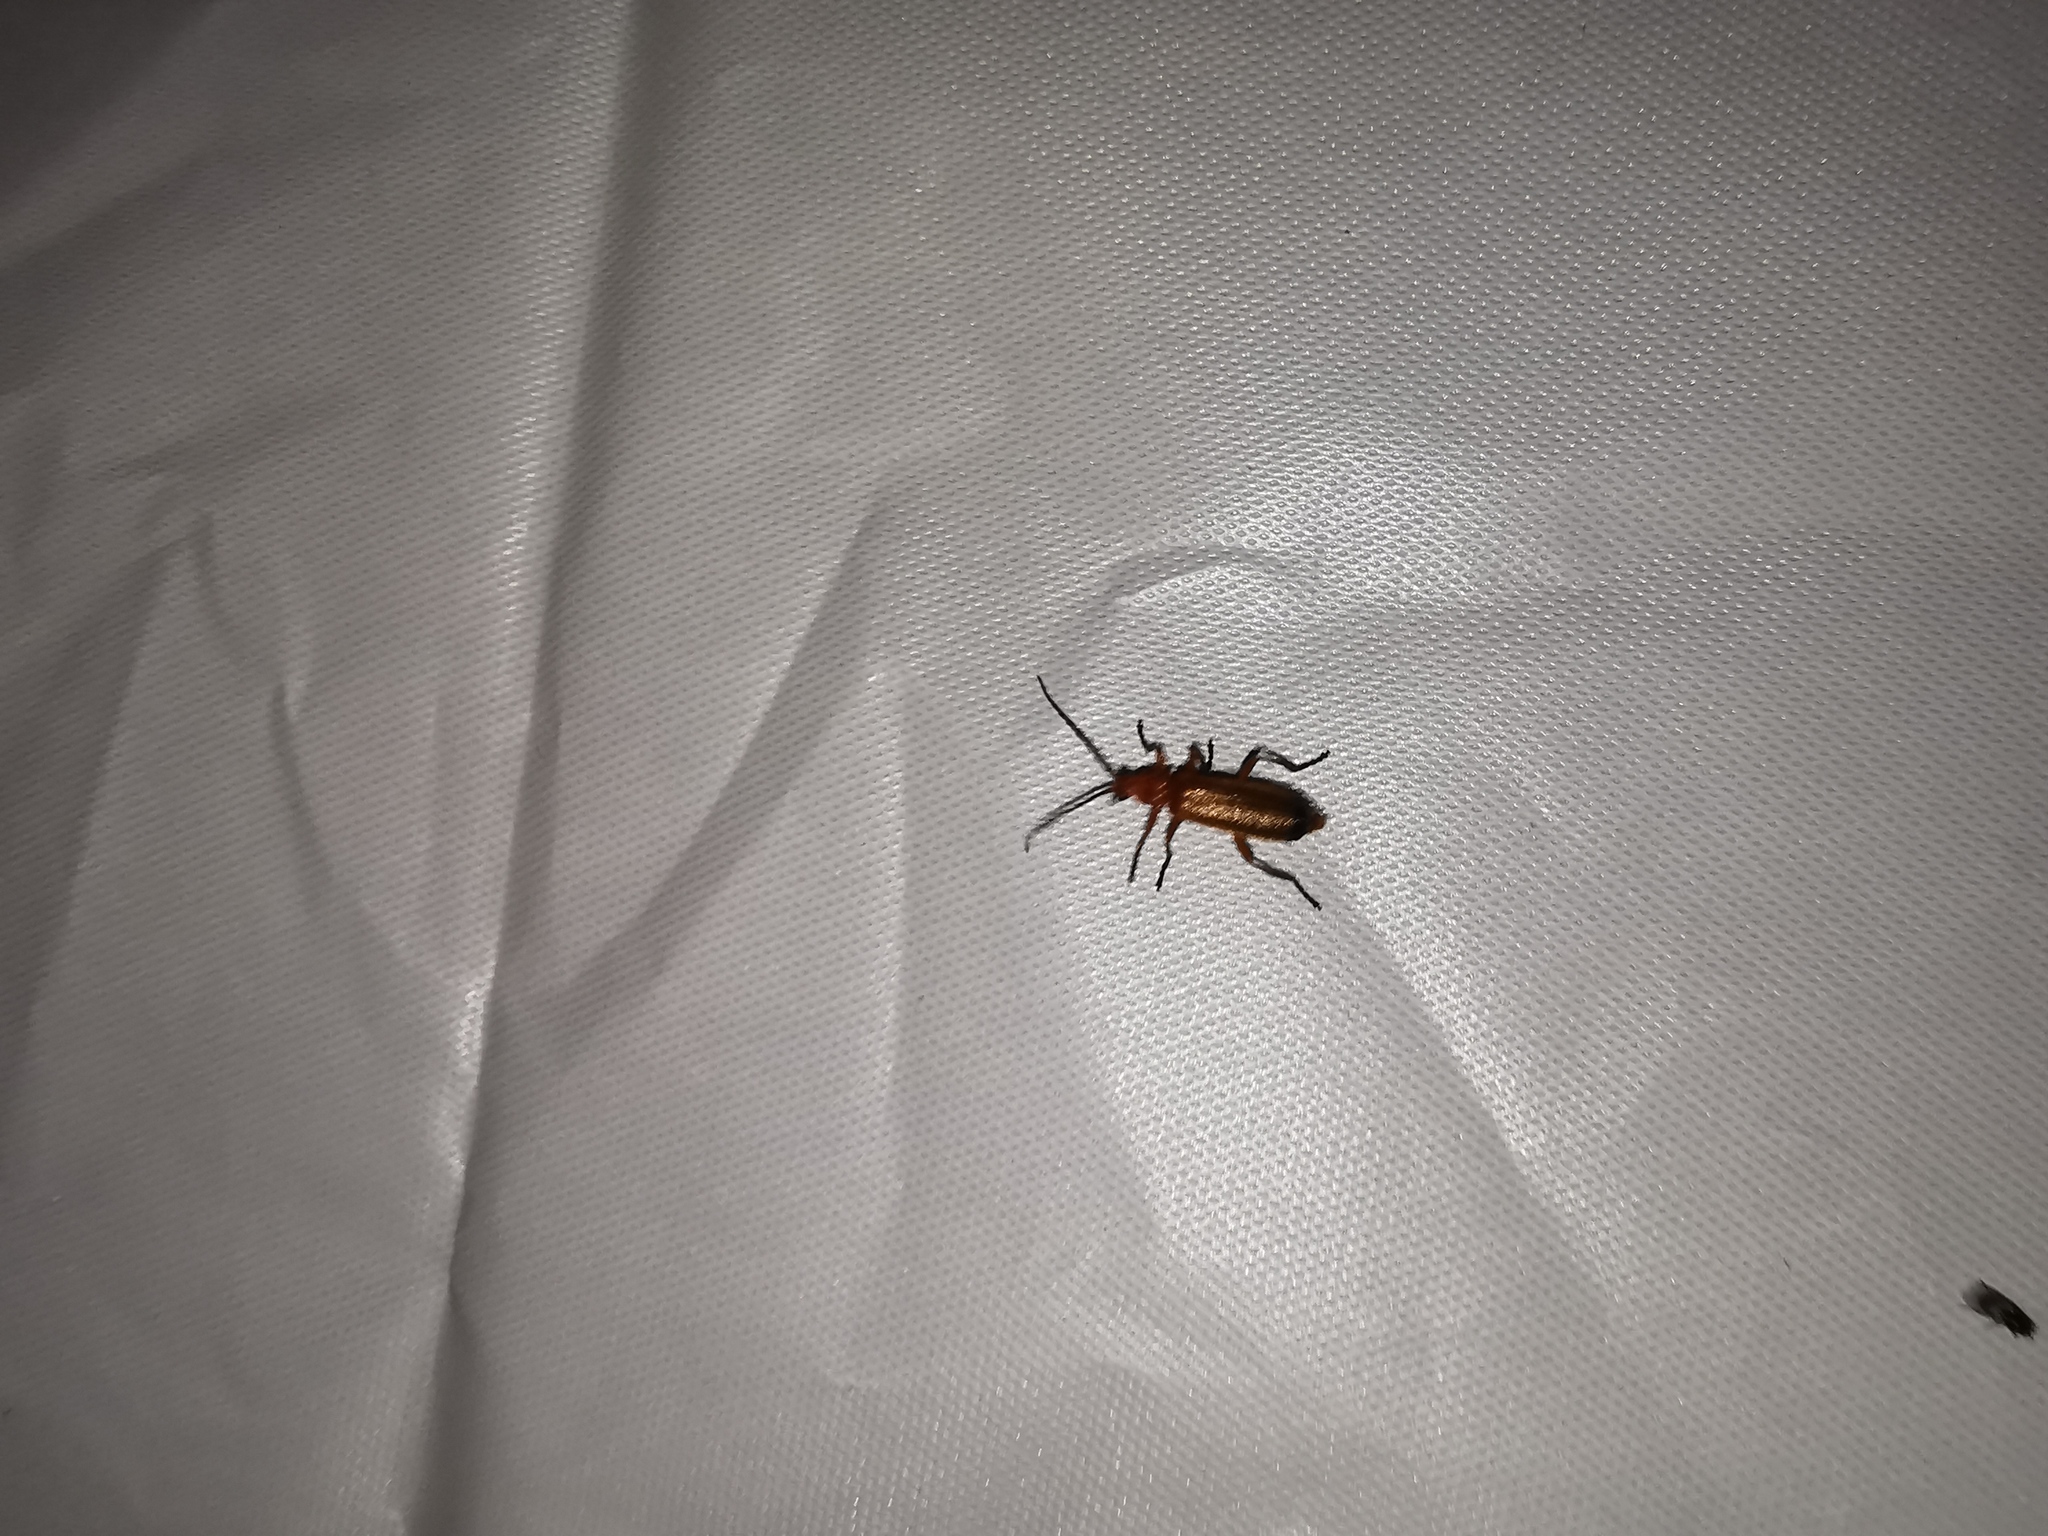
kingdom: Animalia
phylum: Arthropoda
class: Insecta
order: Coleoptera
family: Cantharidae
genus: Rhagonycha
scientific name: Rhagonycha fulva
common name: Common red soldier beetle
